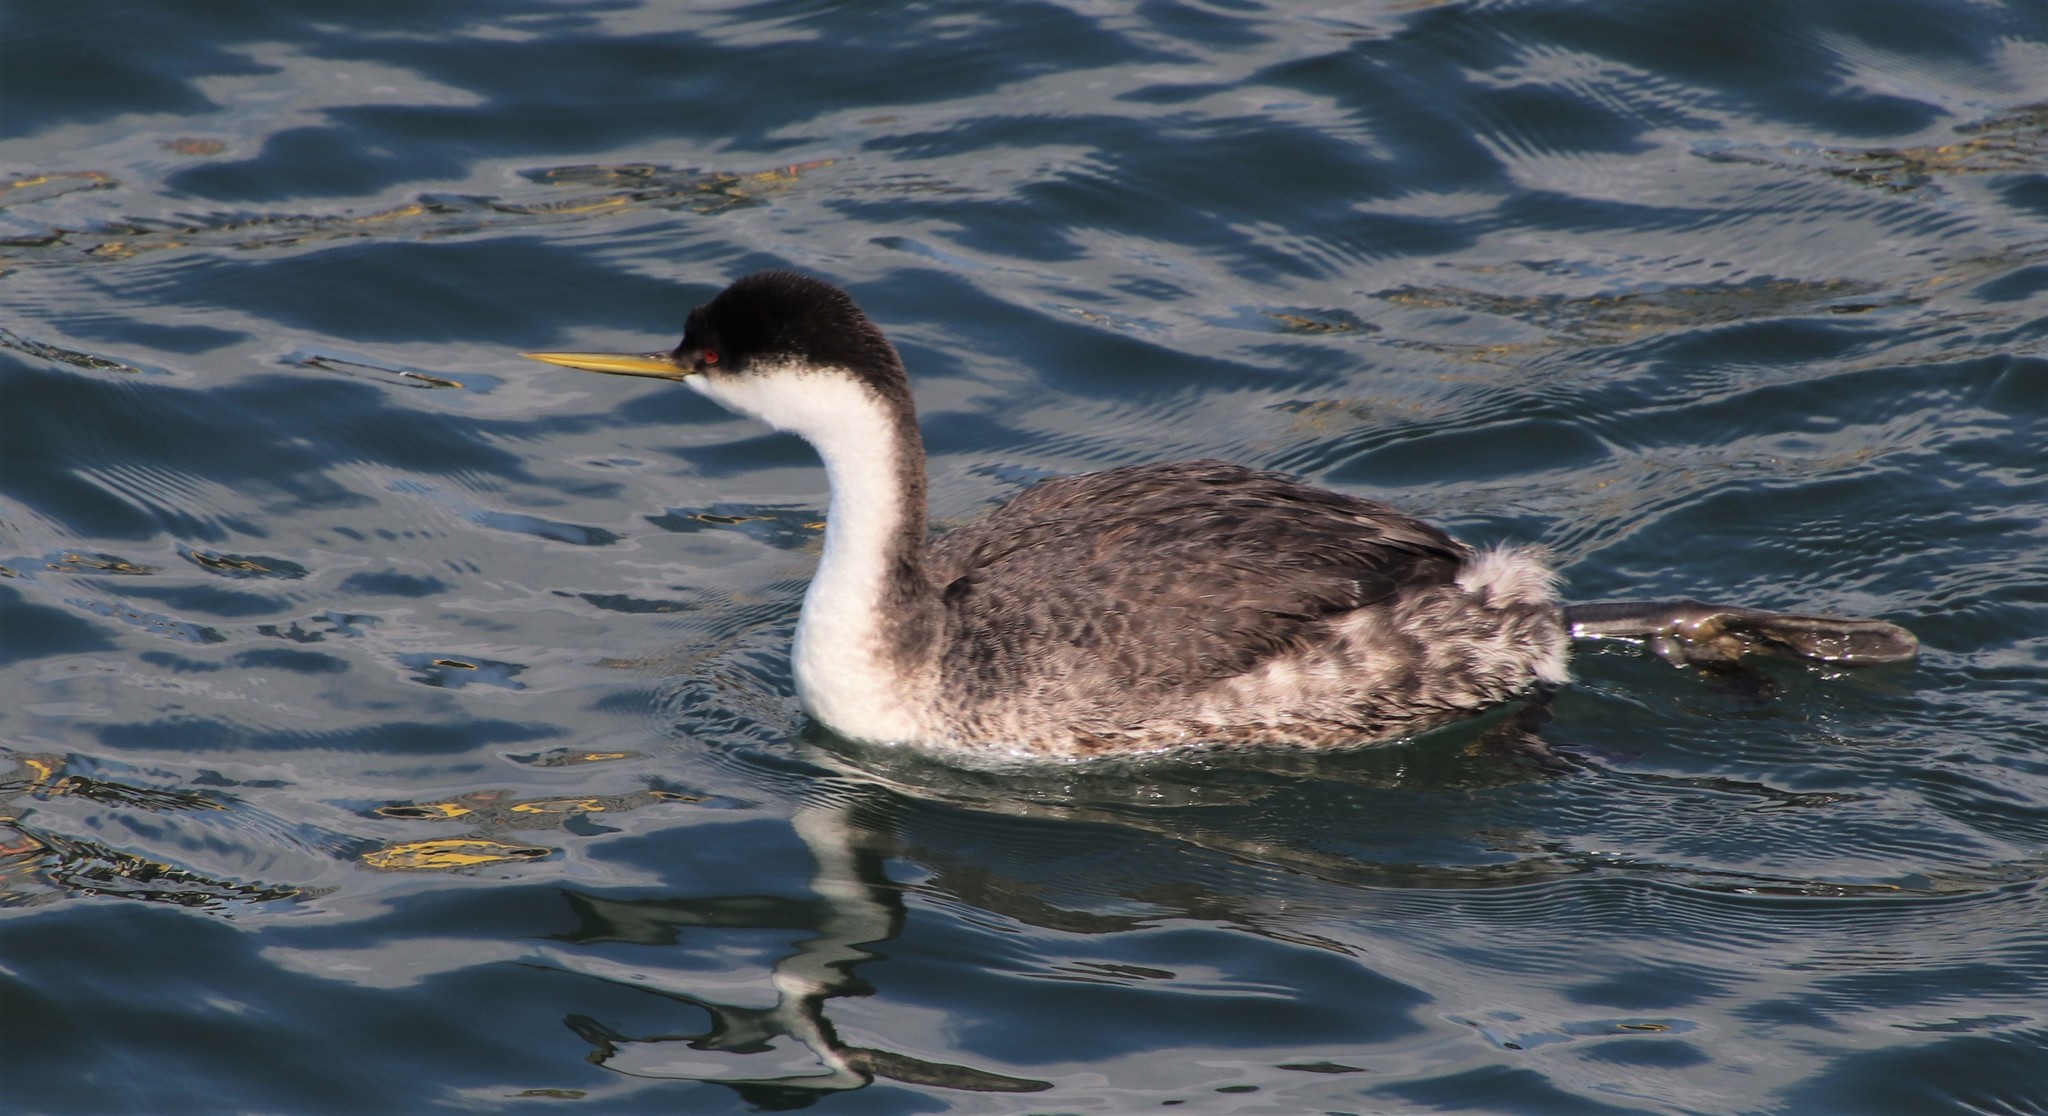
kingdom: Animalia
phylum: Chordata
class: Aves
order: Podicipediformes
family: Podicipedidae
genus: Aechmophorus
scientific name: Aechmophorus occidentalis
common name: Western grebe
